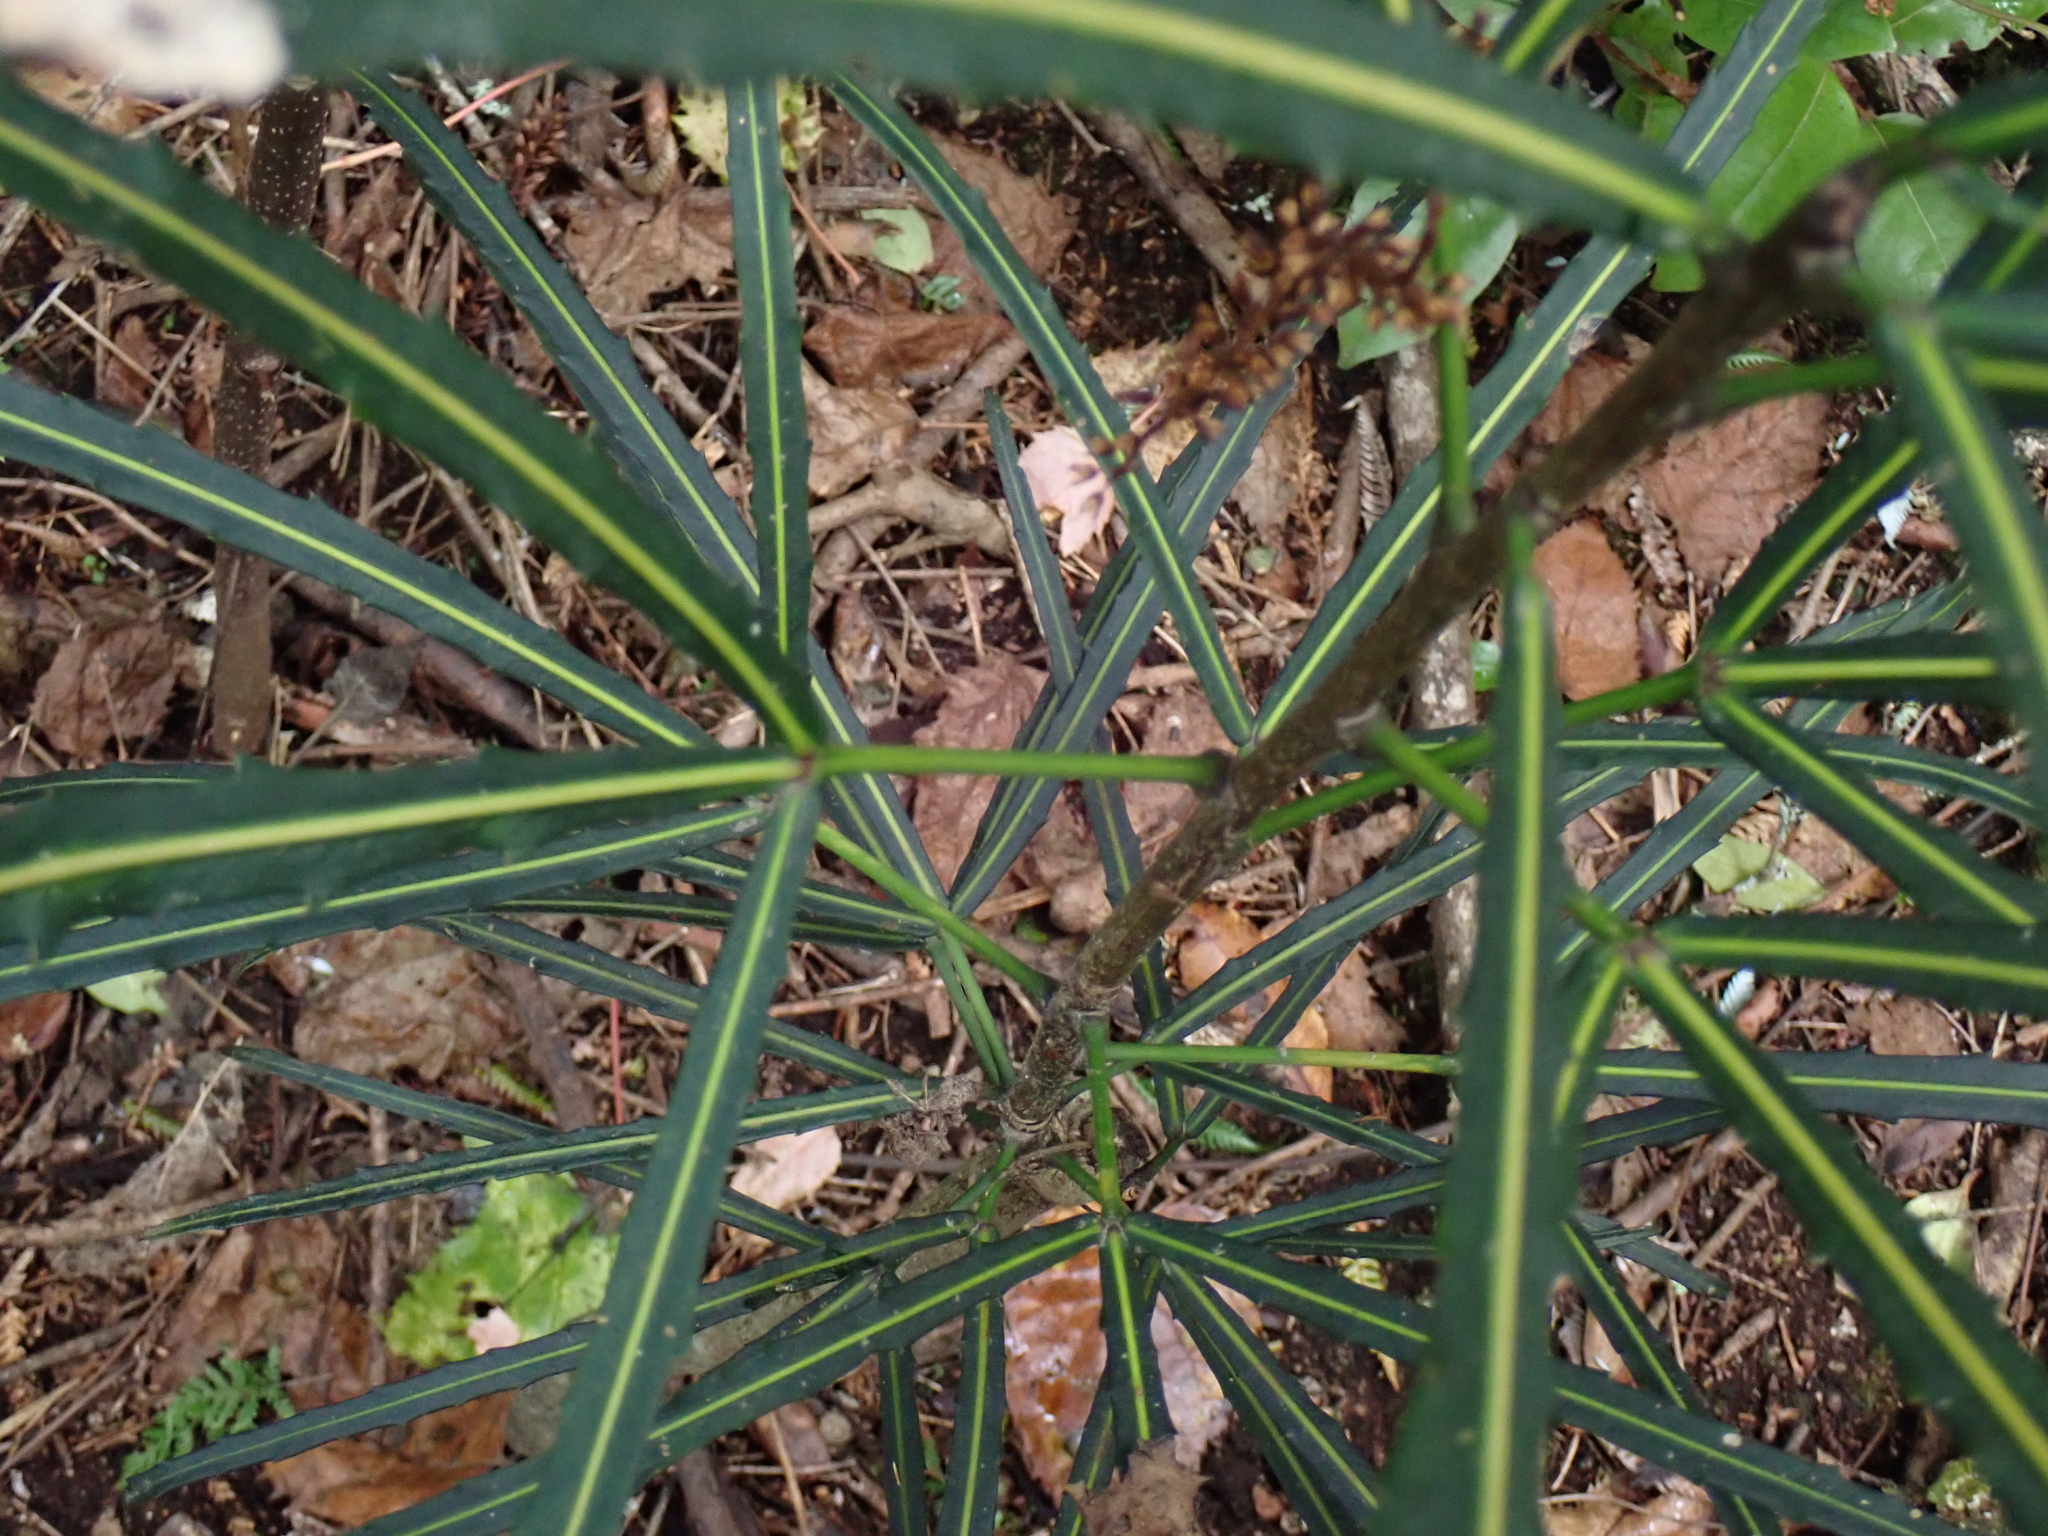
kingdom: Plantae
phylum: Tracheophyta
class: Magnoliopsida
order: Apiales
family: Araliaceae
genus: Pseudopanax
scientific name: Pseudopanax
